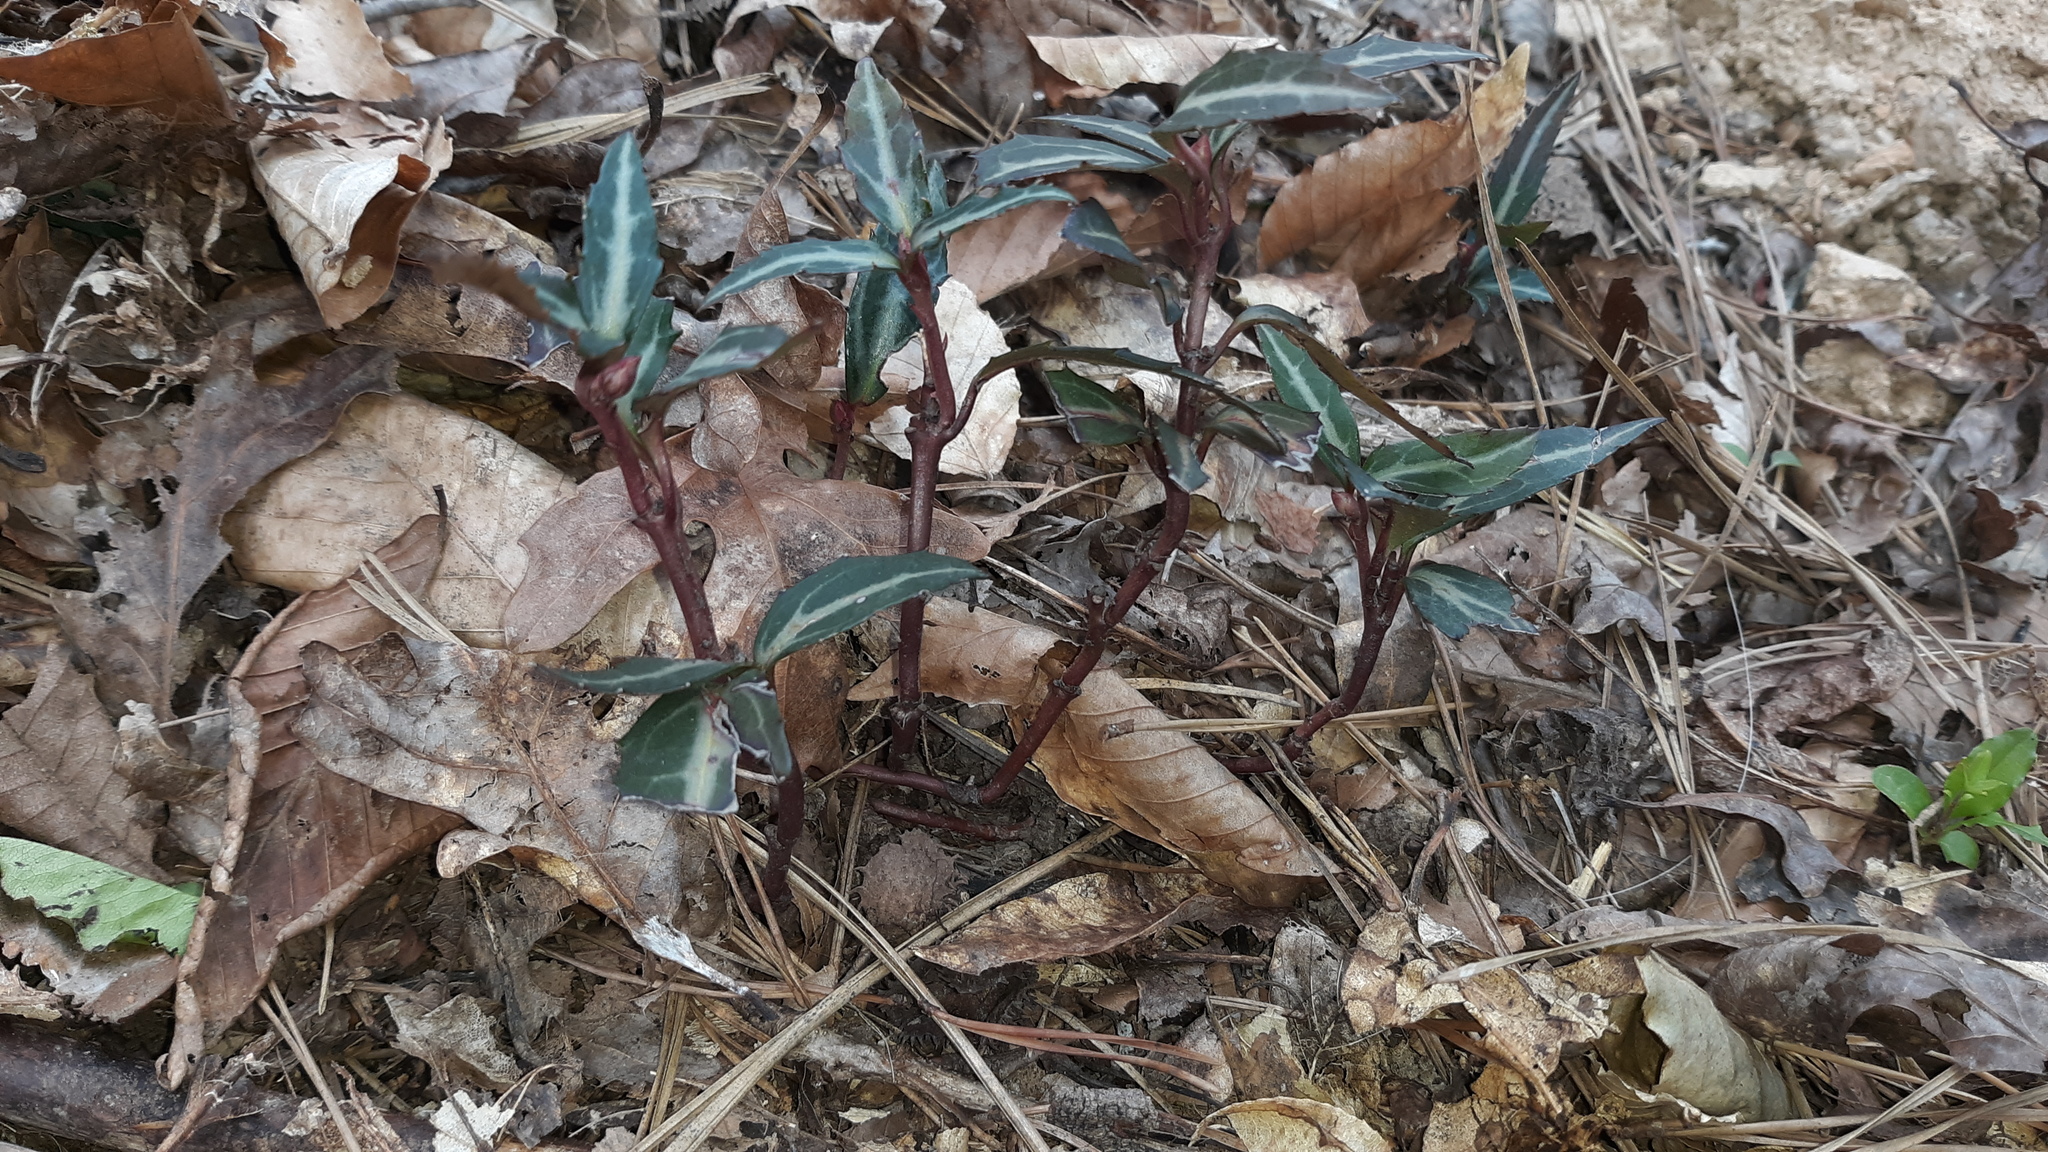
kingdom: Plantae
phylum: Tracheophyta
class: Magnoliopsida
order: Ericales
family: Ericaceae
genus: Chimaphila
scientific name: Chimaphila maculata
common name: Spotted pipsissewa
